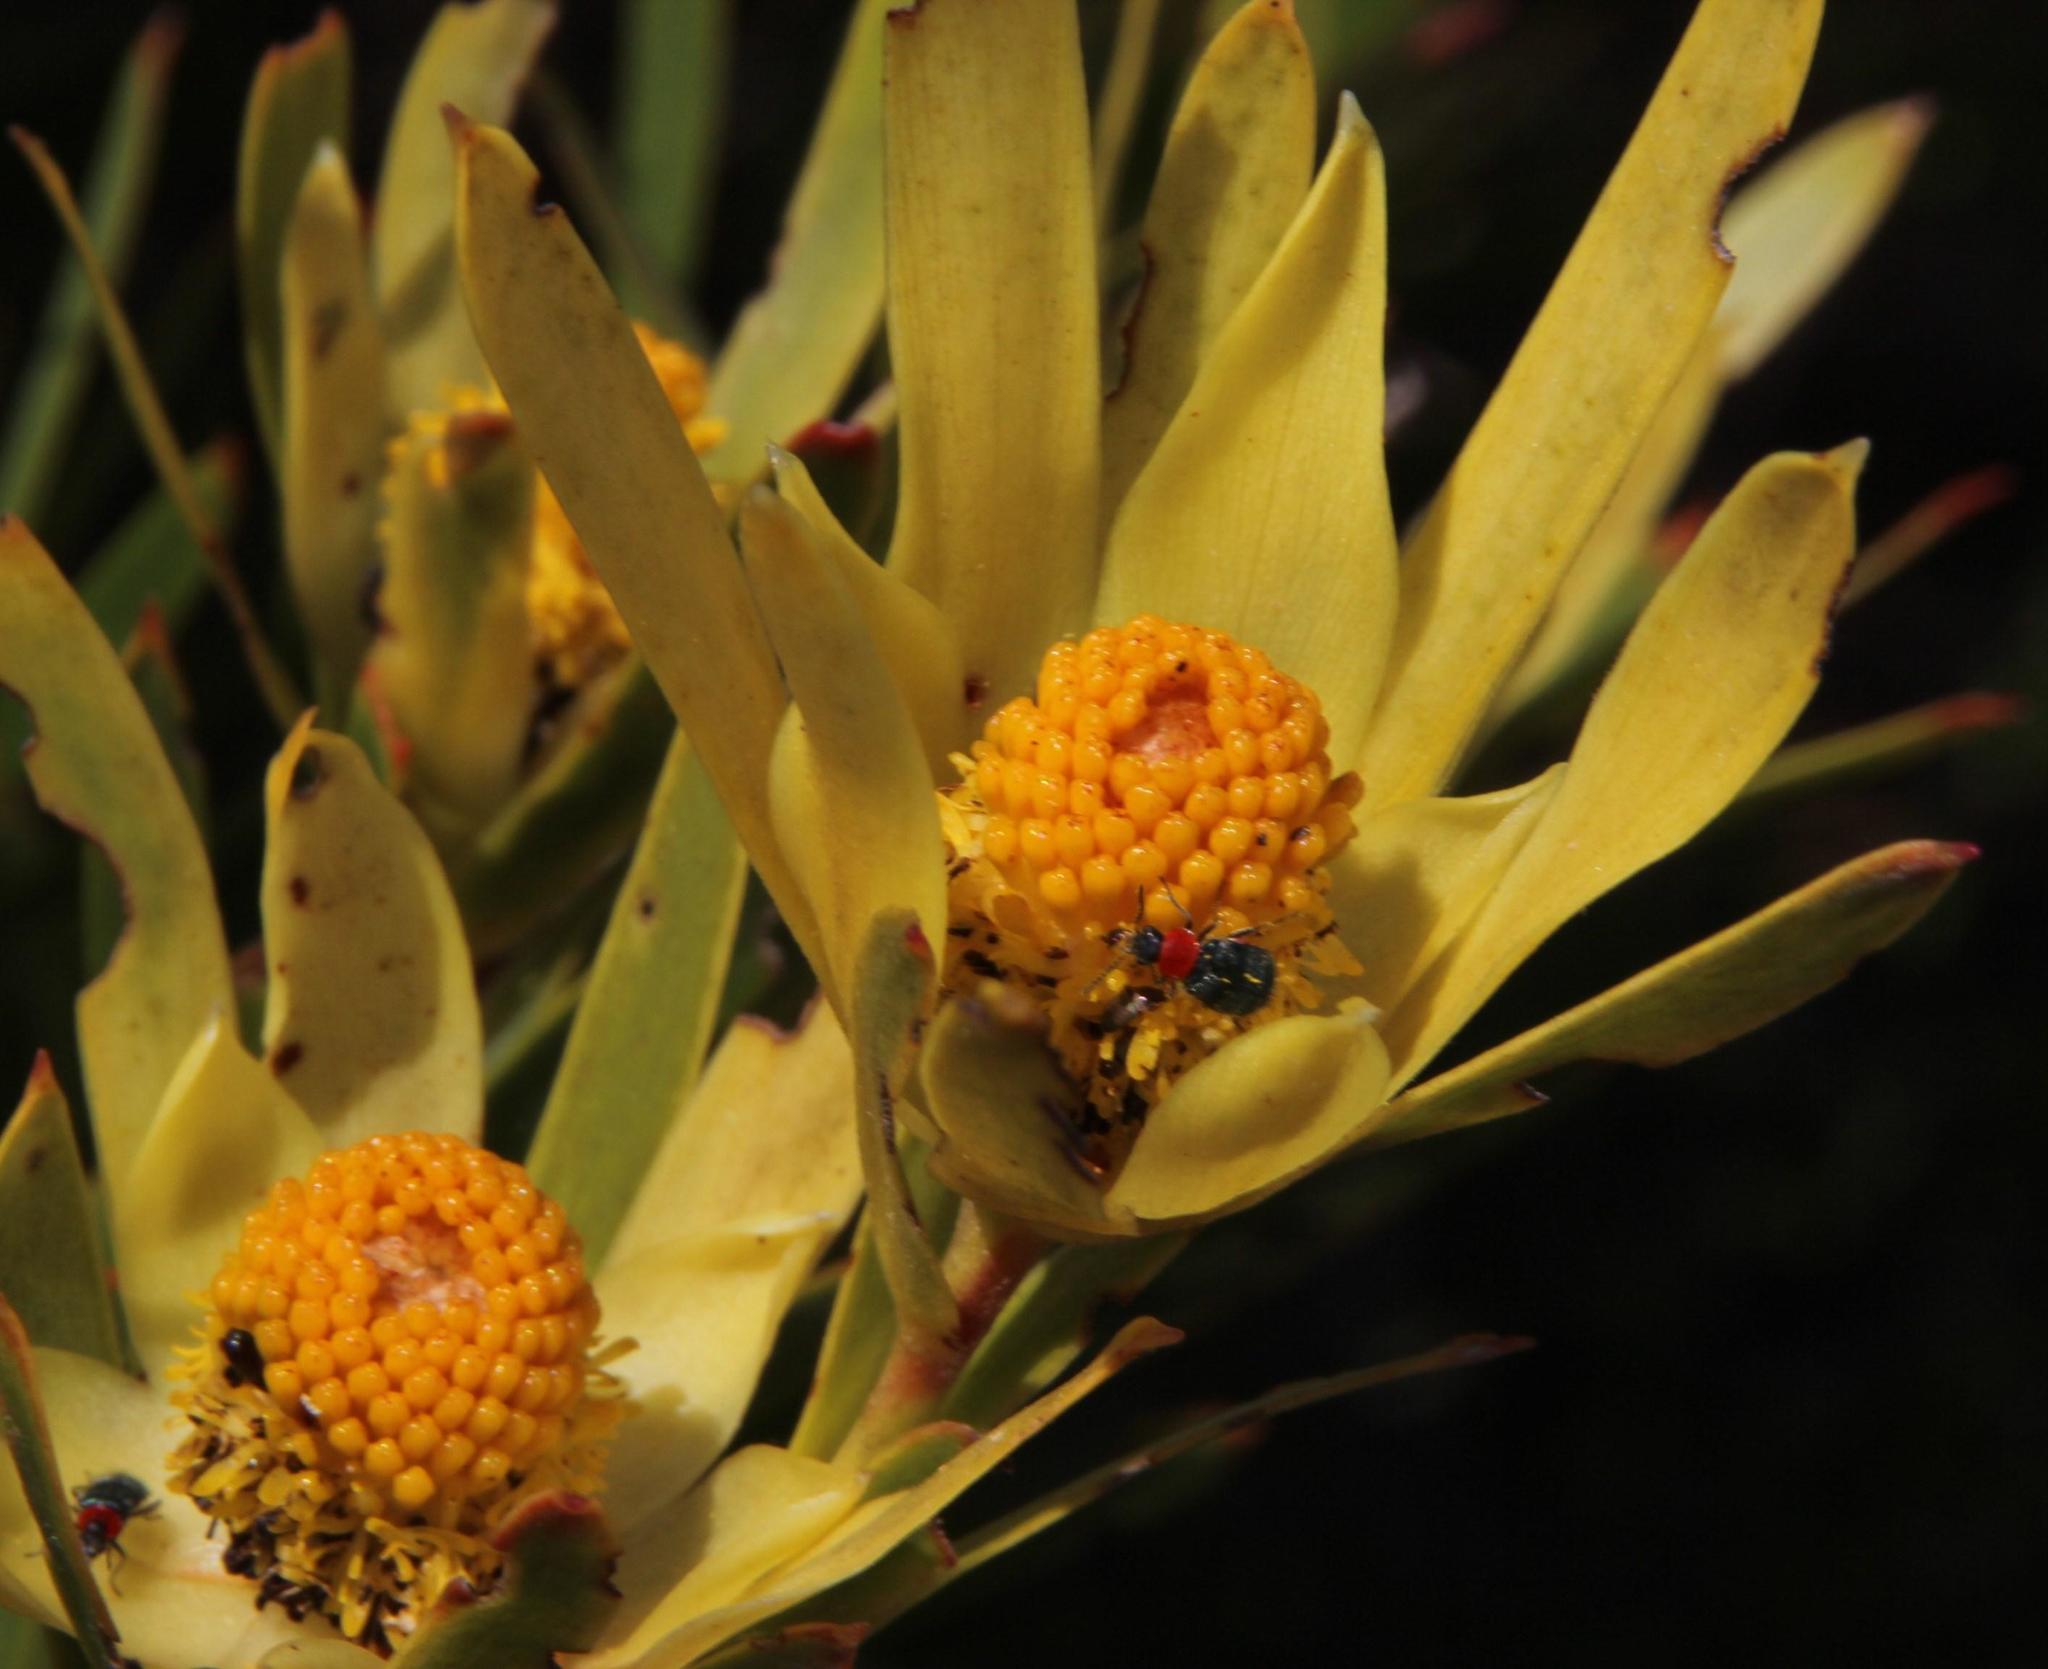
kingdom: Plantae
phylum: Tracheophyta
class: Magnoliopsida
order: Proteales
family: Proteaceae
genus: Leucadendron
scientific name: Leucadendron xanthoconus
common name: Sickle-leaf conebush
